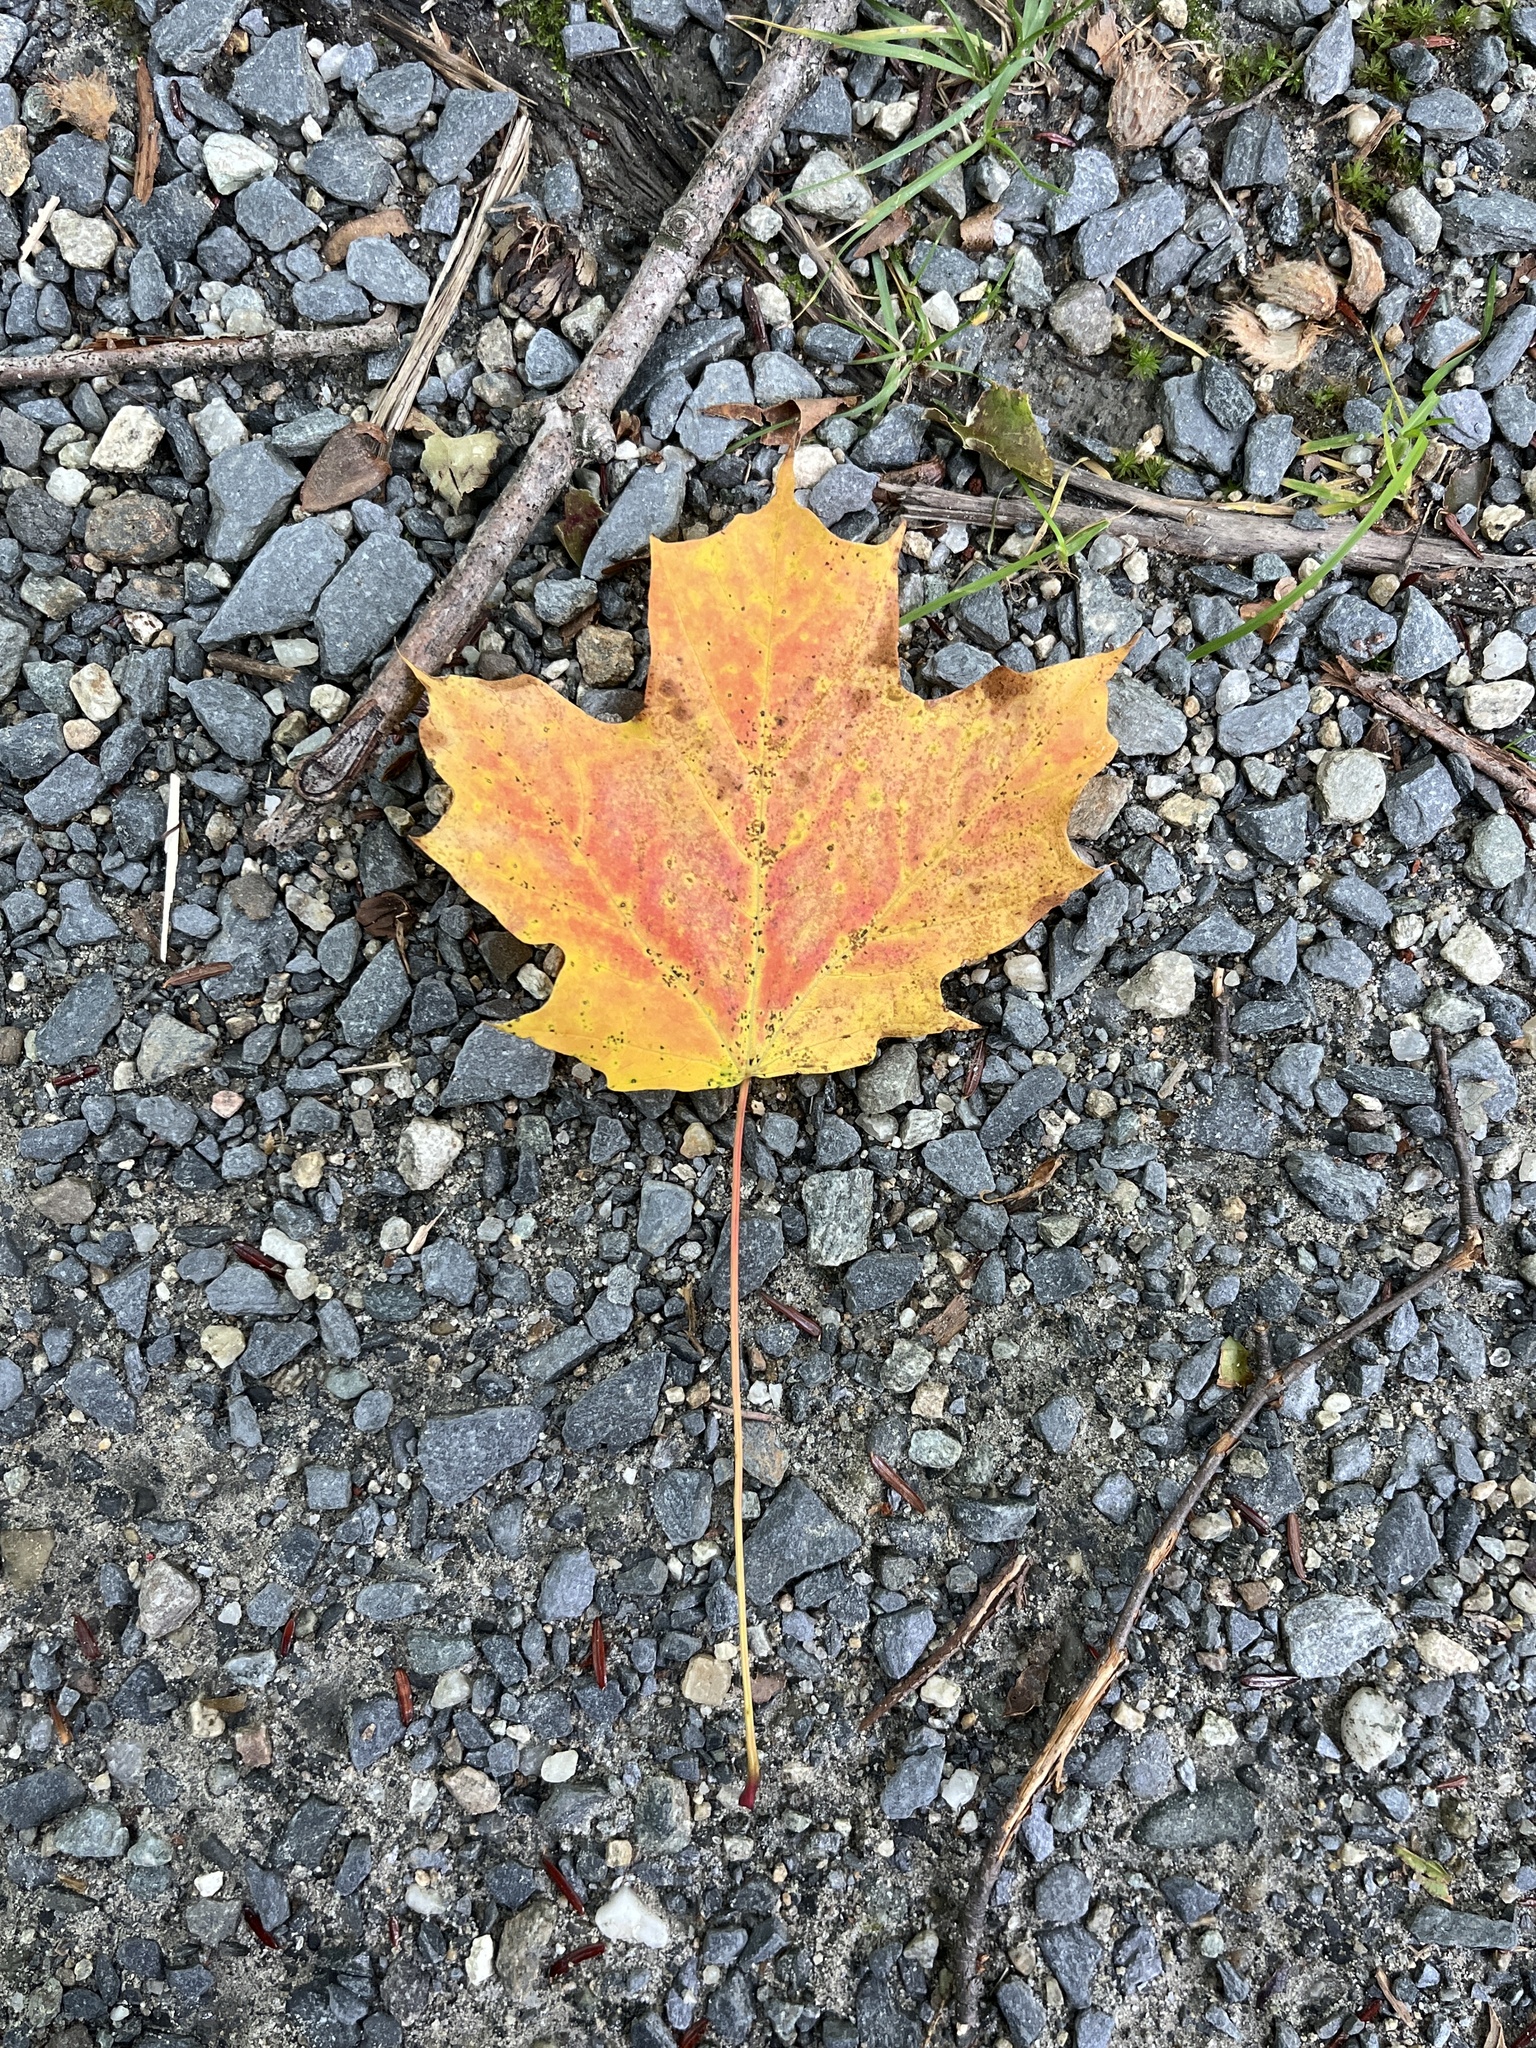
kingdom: Plantae
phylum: Tracheophyta
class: Magnoliopsida
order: Sapindales
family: Sapindaceae
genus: Acer
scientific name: Acer saccharum
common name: Sugar maple
